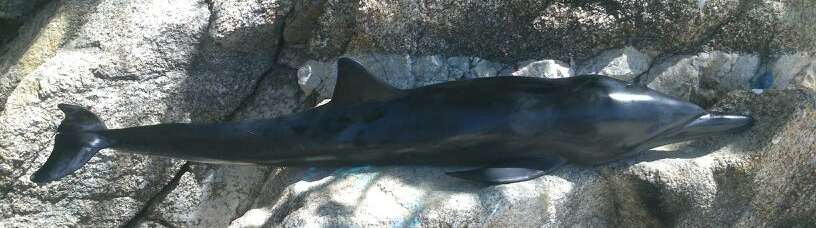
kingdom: Animalia
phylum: Chordata
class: Mammalia
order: Cetacea
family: Delphinidae
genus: Stenella
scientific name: Stenella longirostris
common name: Spinner dolphin
